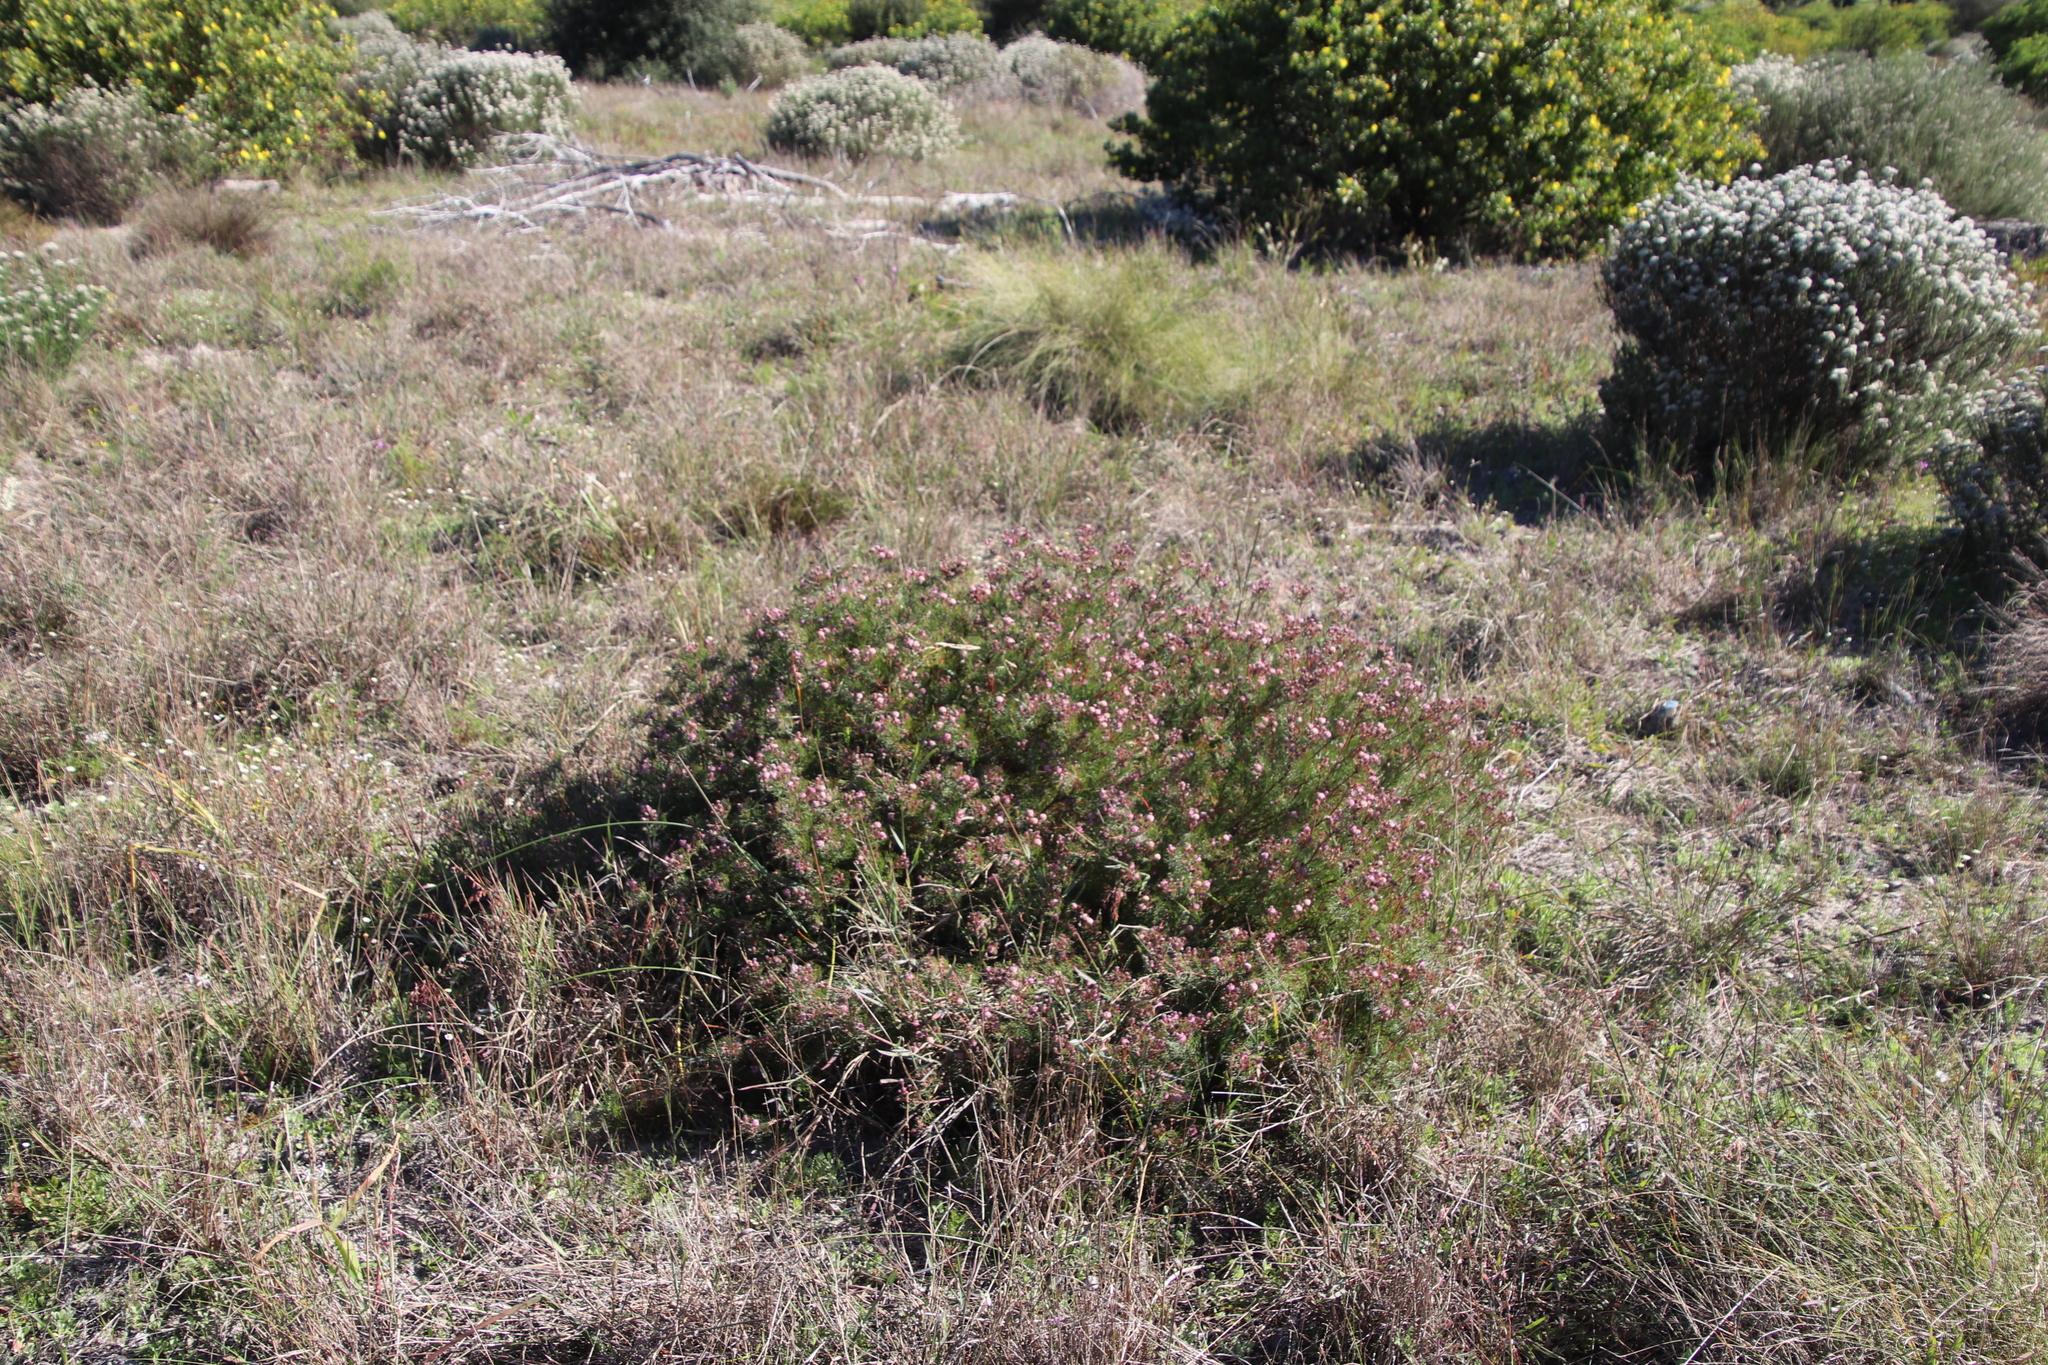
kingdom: Plantae
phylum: Tracheophyta
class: Magnoliopsida
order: Proteales
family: Proteaceae
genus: Serruria
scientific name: Serruria fasciflora
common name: Common pin spiderhead
